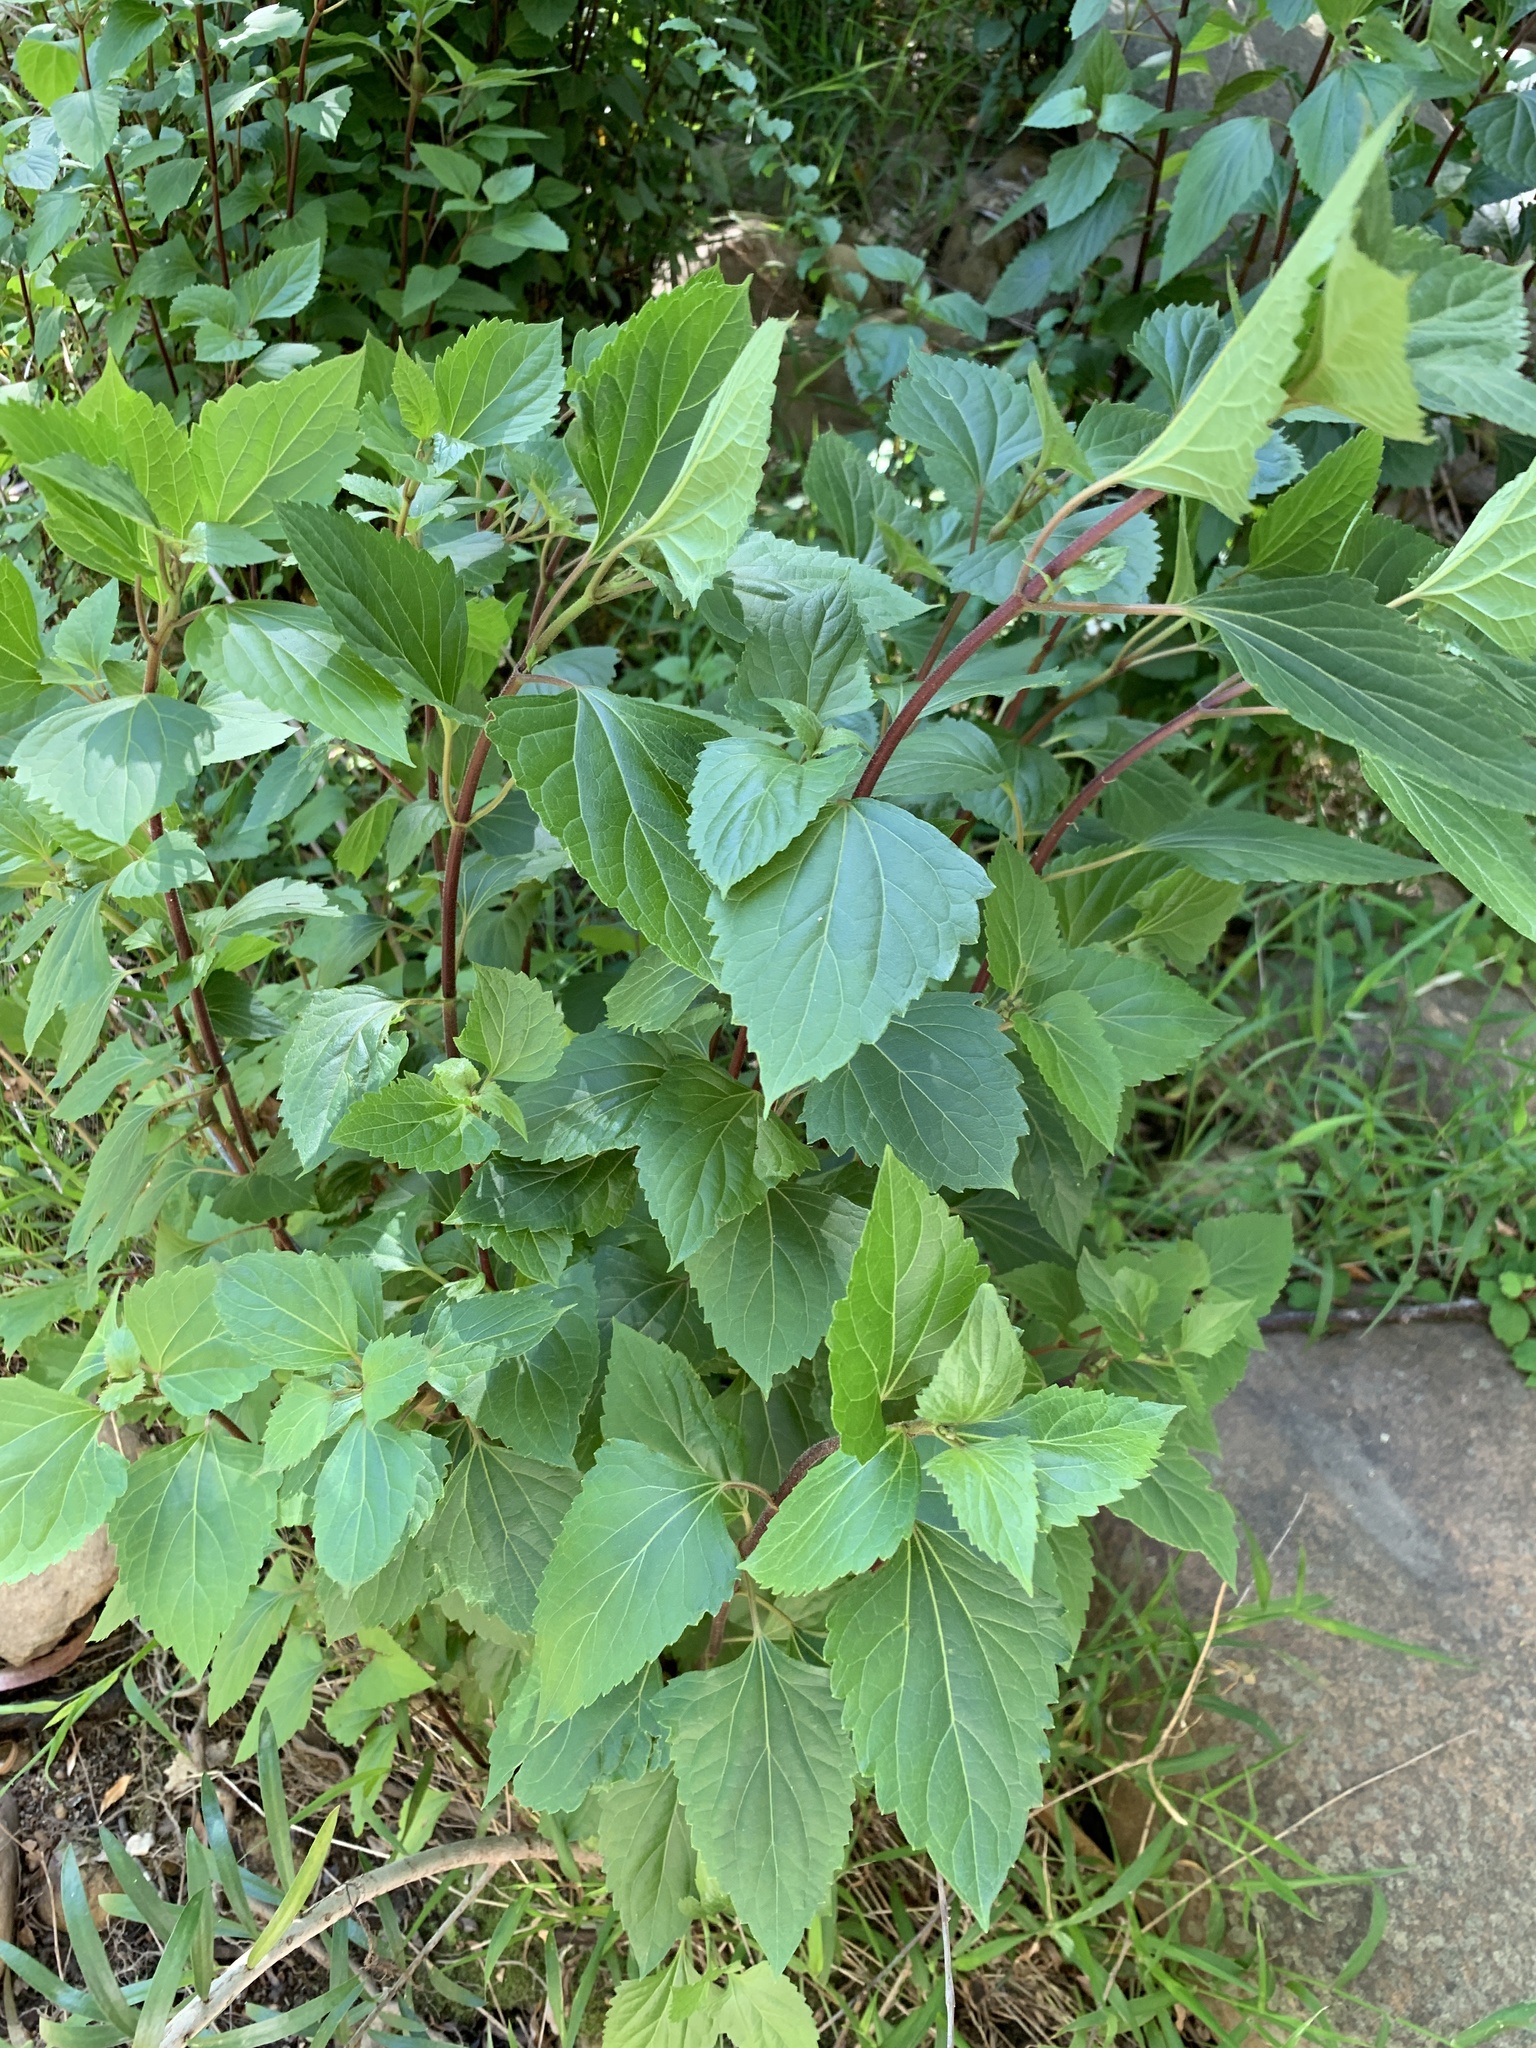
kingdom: Plantae
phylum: Tracheophyta
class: Magnoliopsida
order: Asterales
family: Asteraceae
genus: Ageratina
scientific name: Ageratina adenophora
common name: Sticky snakeroot
